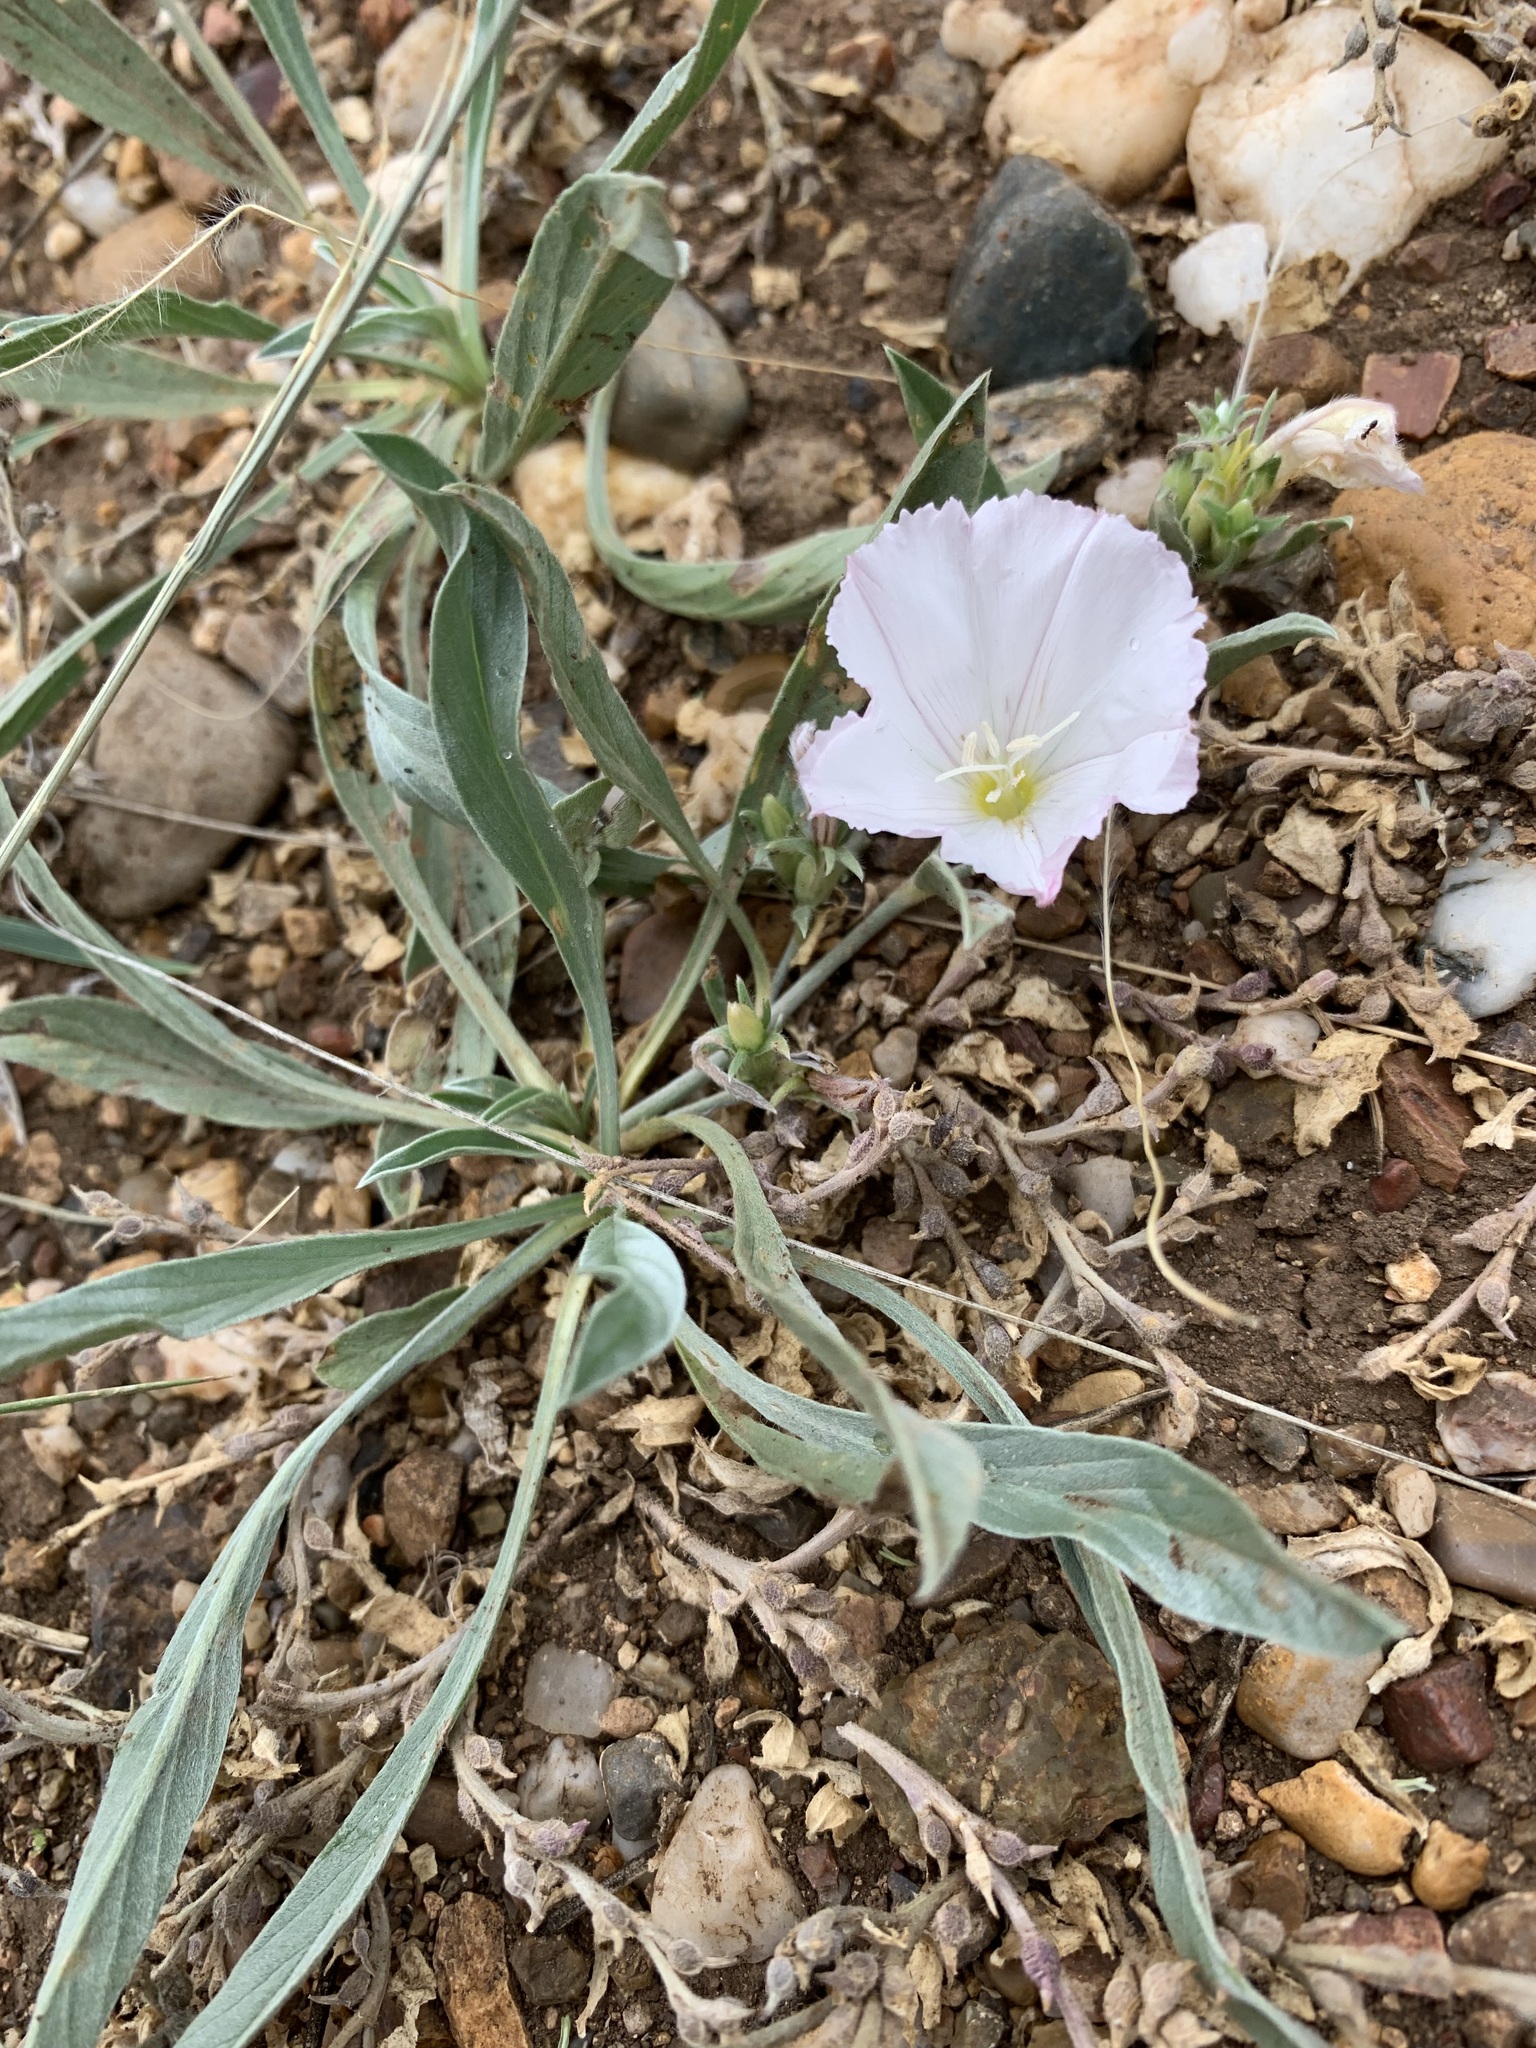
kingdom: Plantae
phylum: Tracheophyta
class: Magnoliopsida
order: Solanales
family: Convolvulaceae
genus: Convolvulus
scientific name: Convolvulus lineatus
